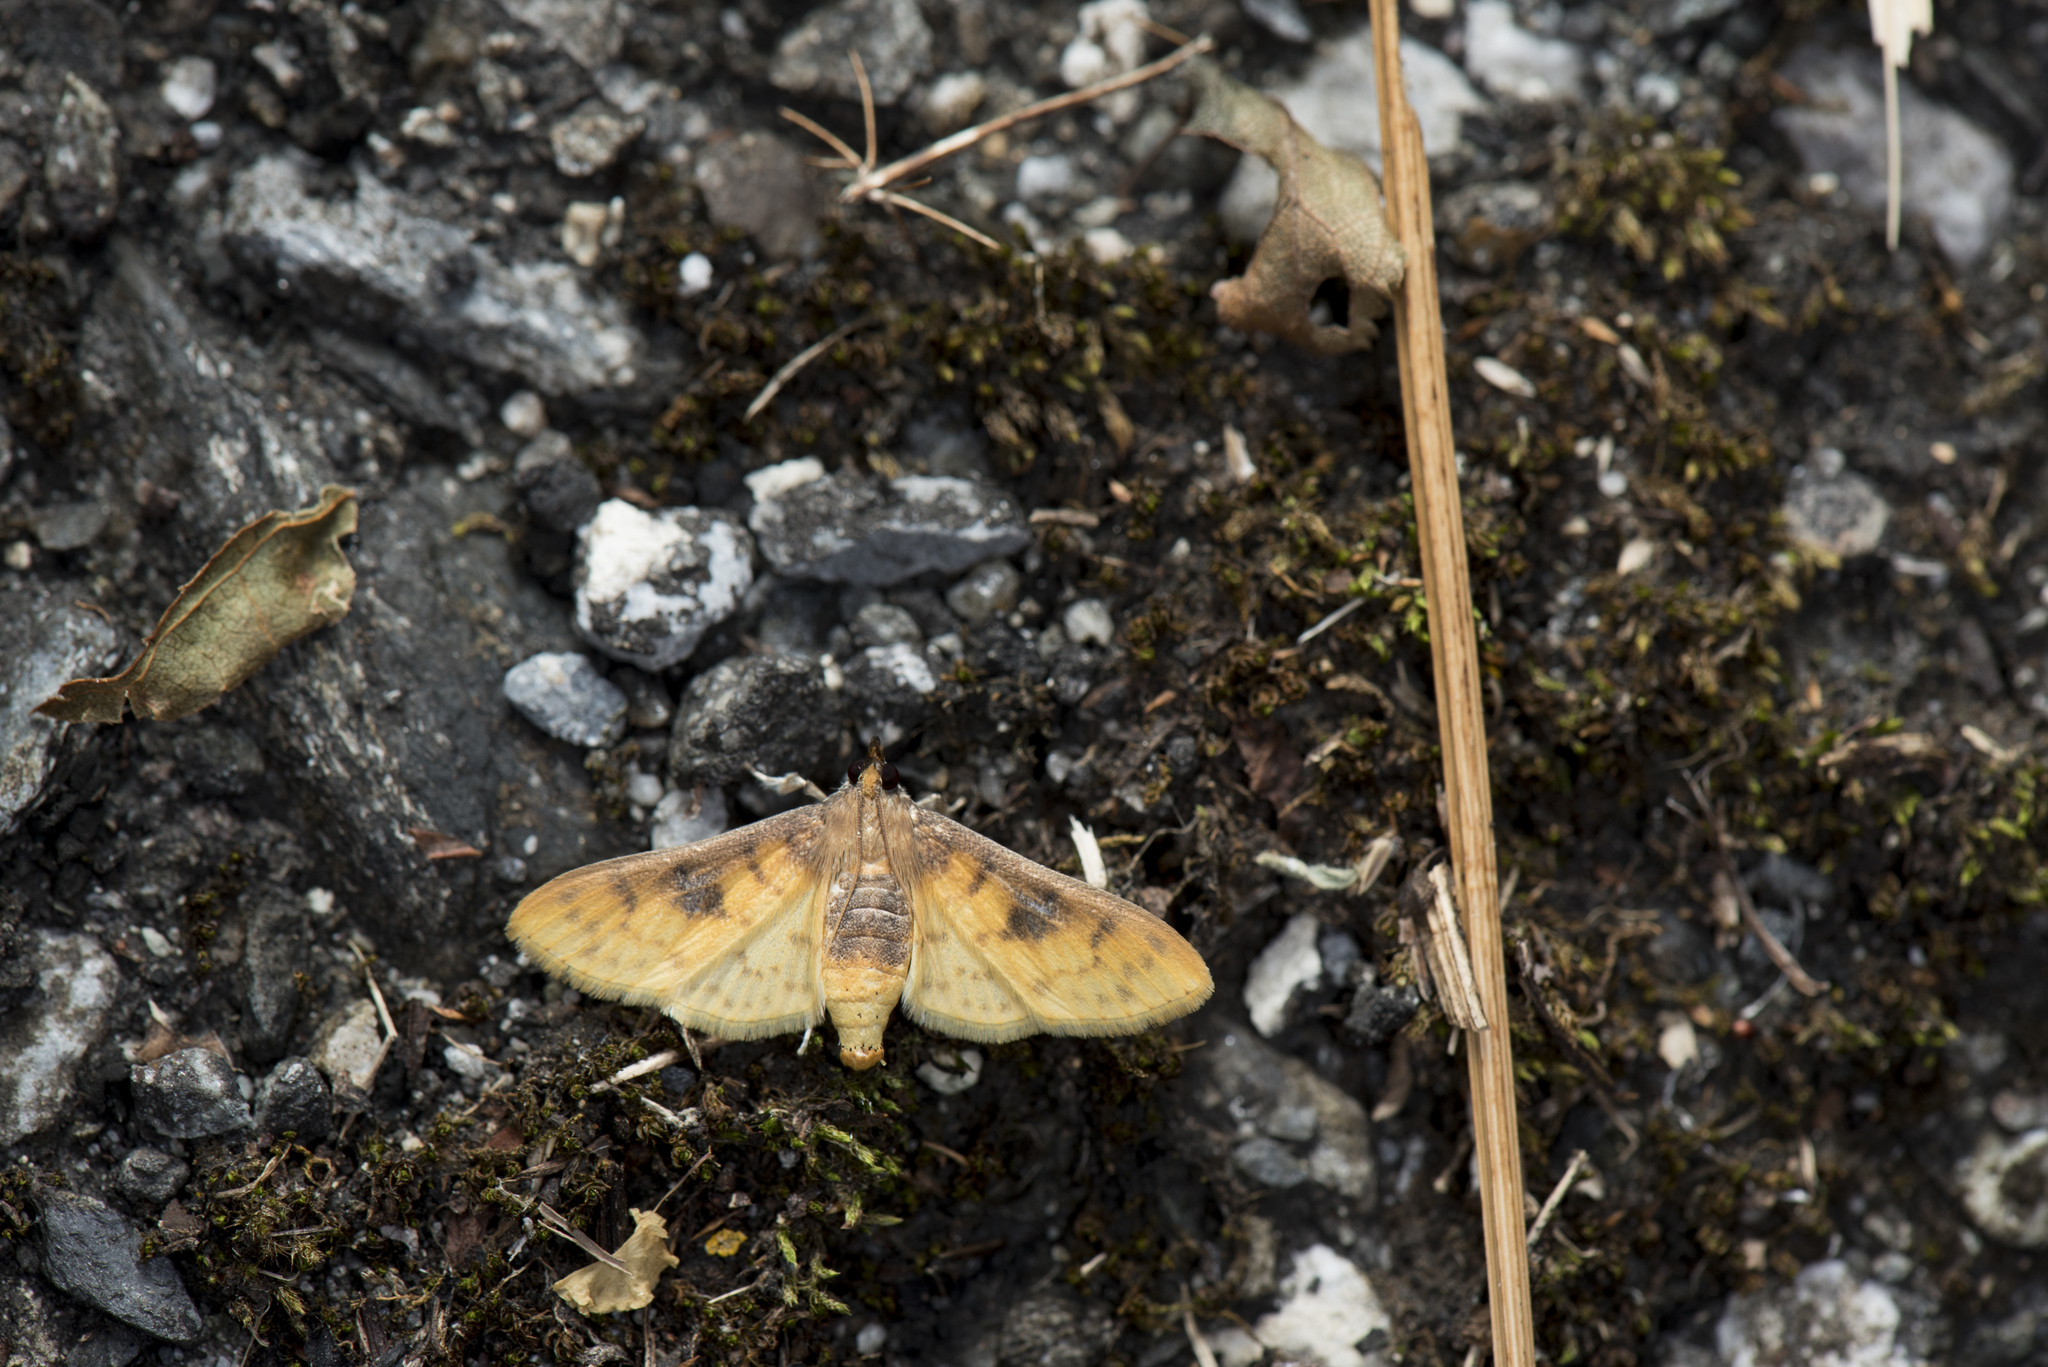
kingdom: Animalia
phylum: Arthropoda
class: Insecta
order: Lepidoptera
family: Crambidae
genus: Polygrammodes
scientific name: Polygrammodes sabelialis
